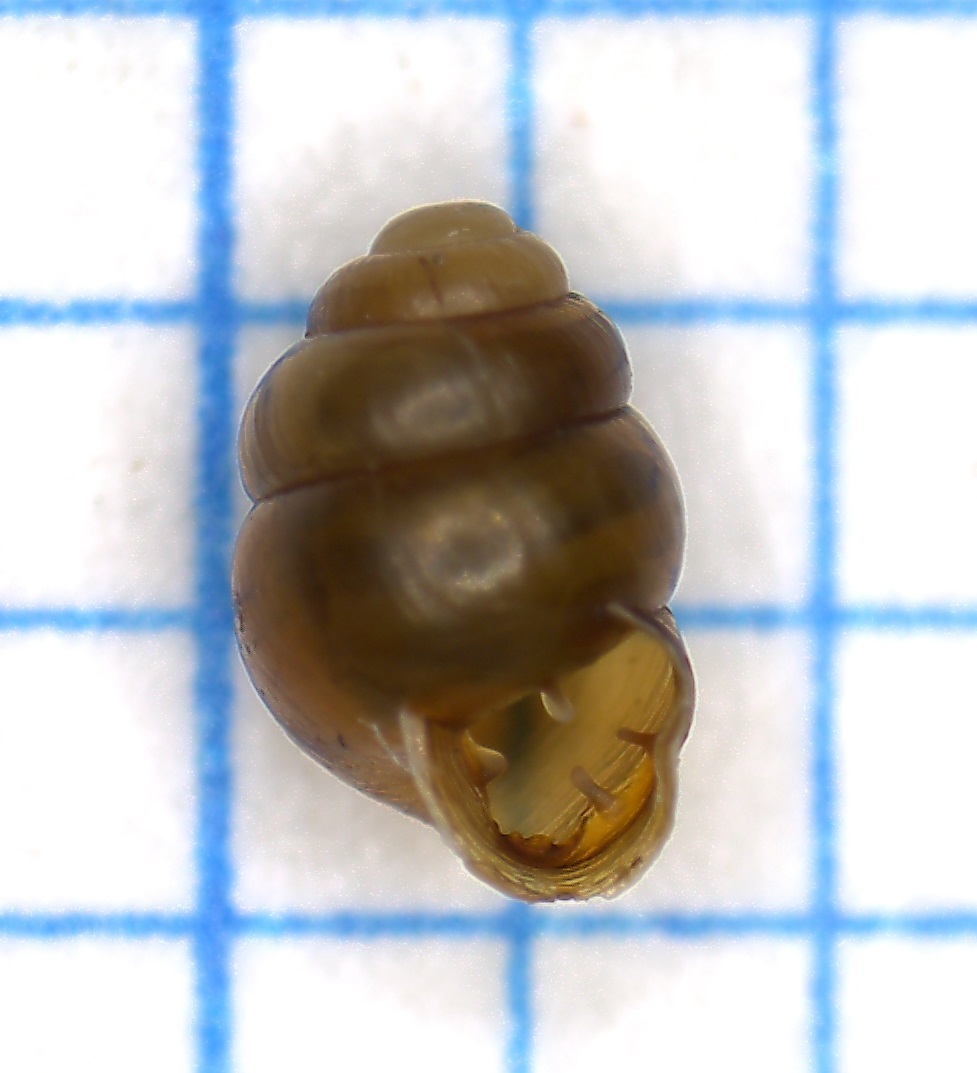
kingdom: Animalia
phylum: Mollusca
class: Gastropoda
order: Stylommatophora
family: Vertiginidae
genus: Vertigo
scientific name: Vertigo moulinsiana
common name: Desmoulin's whorl snail
